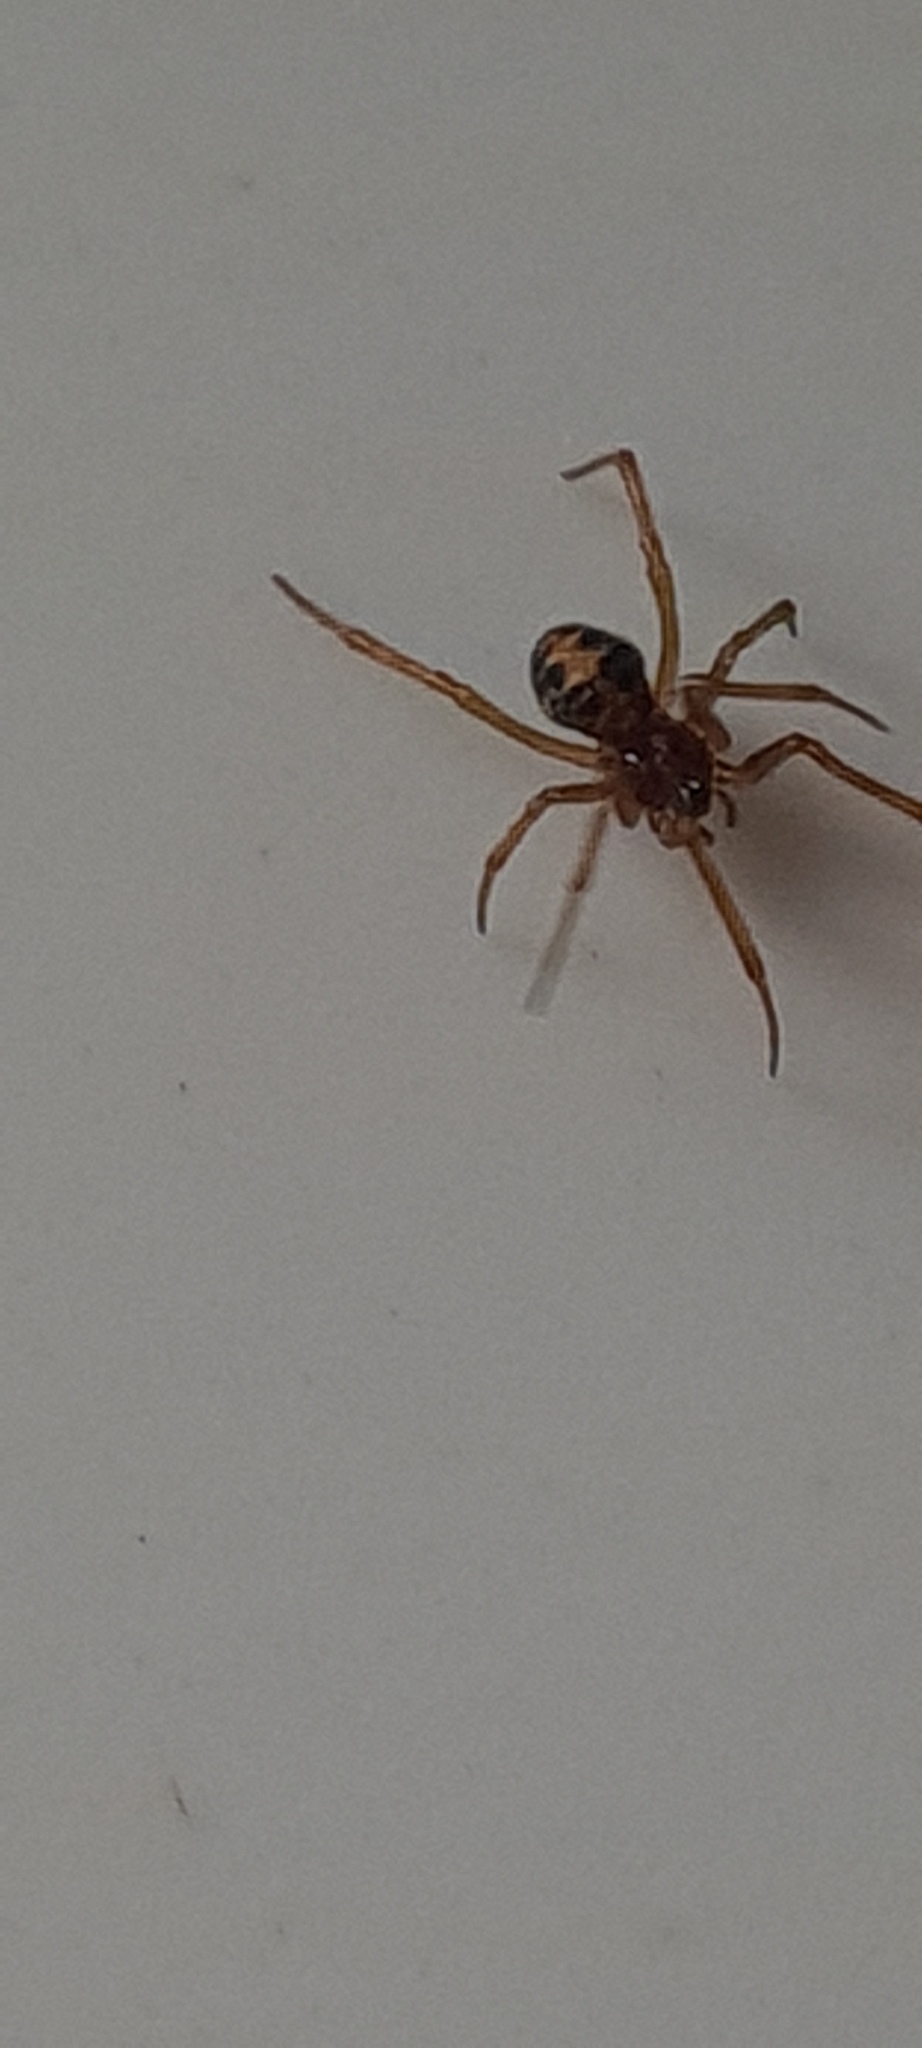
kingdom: Animalia
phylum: Arthropoda
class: Arachnida
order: Araneae
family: Theridiidae
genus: Steatoda
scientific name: Steatoda triangulosa
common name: Triangulate bud spider
